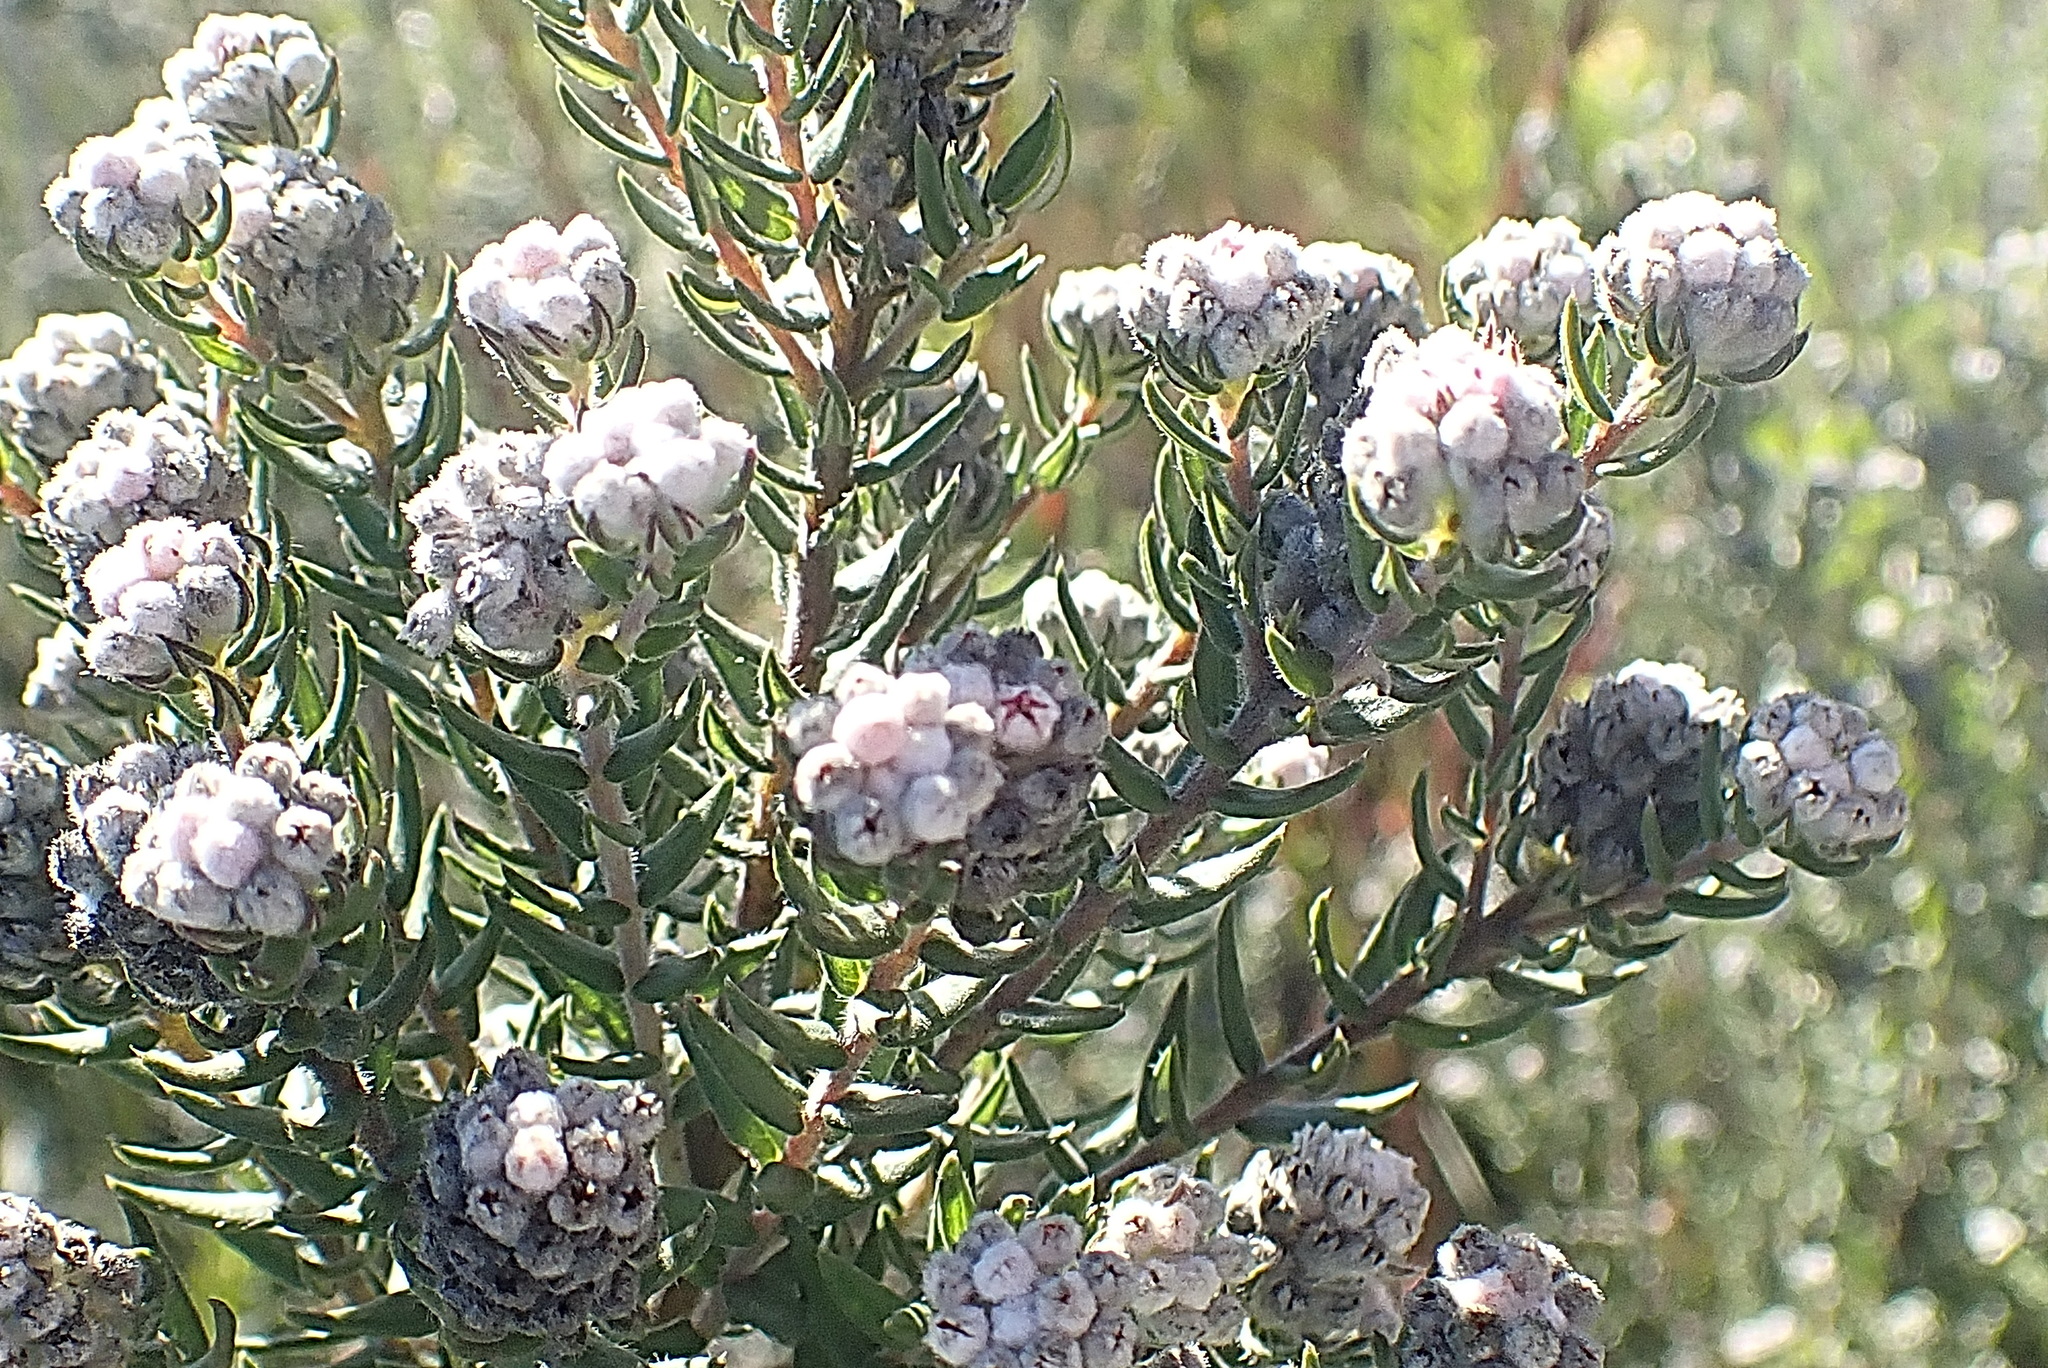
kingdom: Plantae
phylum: Tracheophyta
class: Magnoliopsida
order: Rosales
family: Rhamnaceae
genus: Phylica
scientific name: Phylica purpurea
